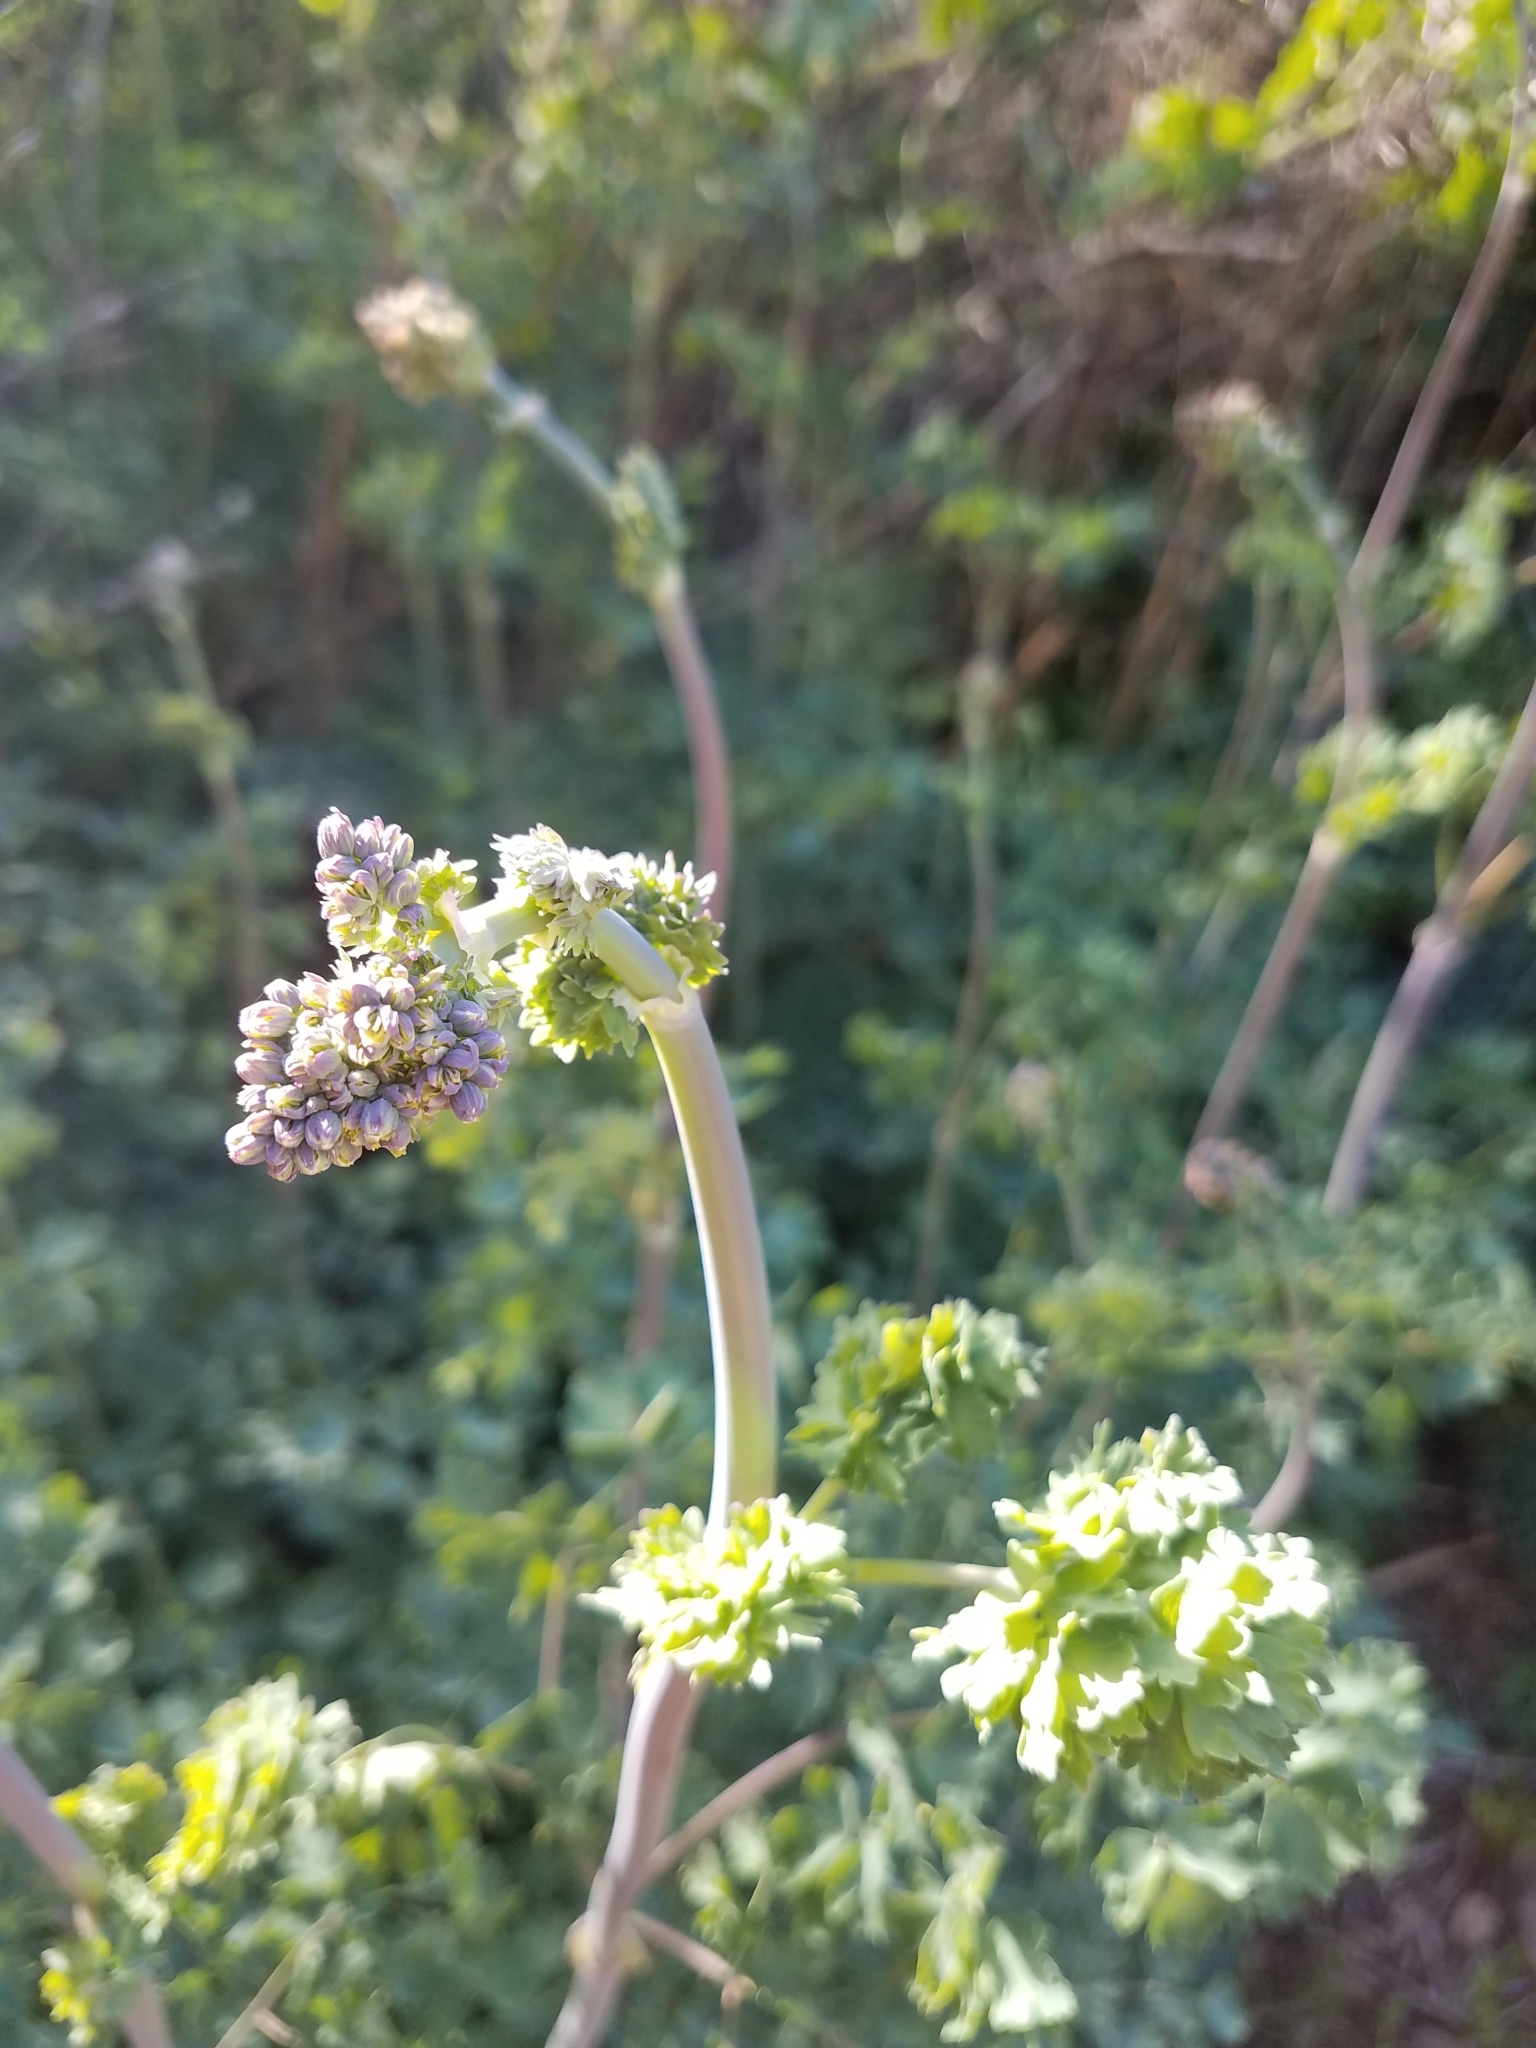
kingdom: Plantae
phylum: Tracheophyta
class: Magnoliopsida
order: Ranunculales
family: Ranunculaceae
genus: Thalictrum
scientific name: Thalictrum fendleri
